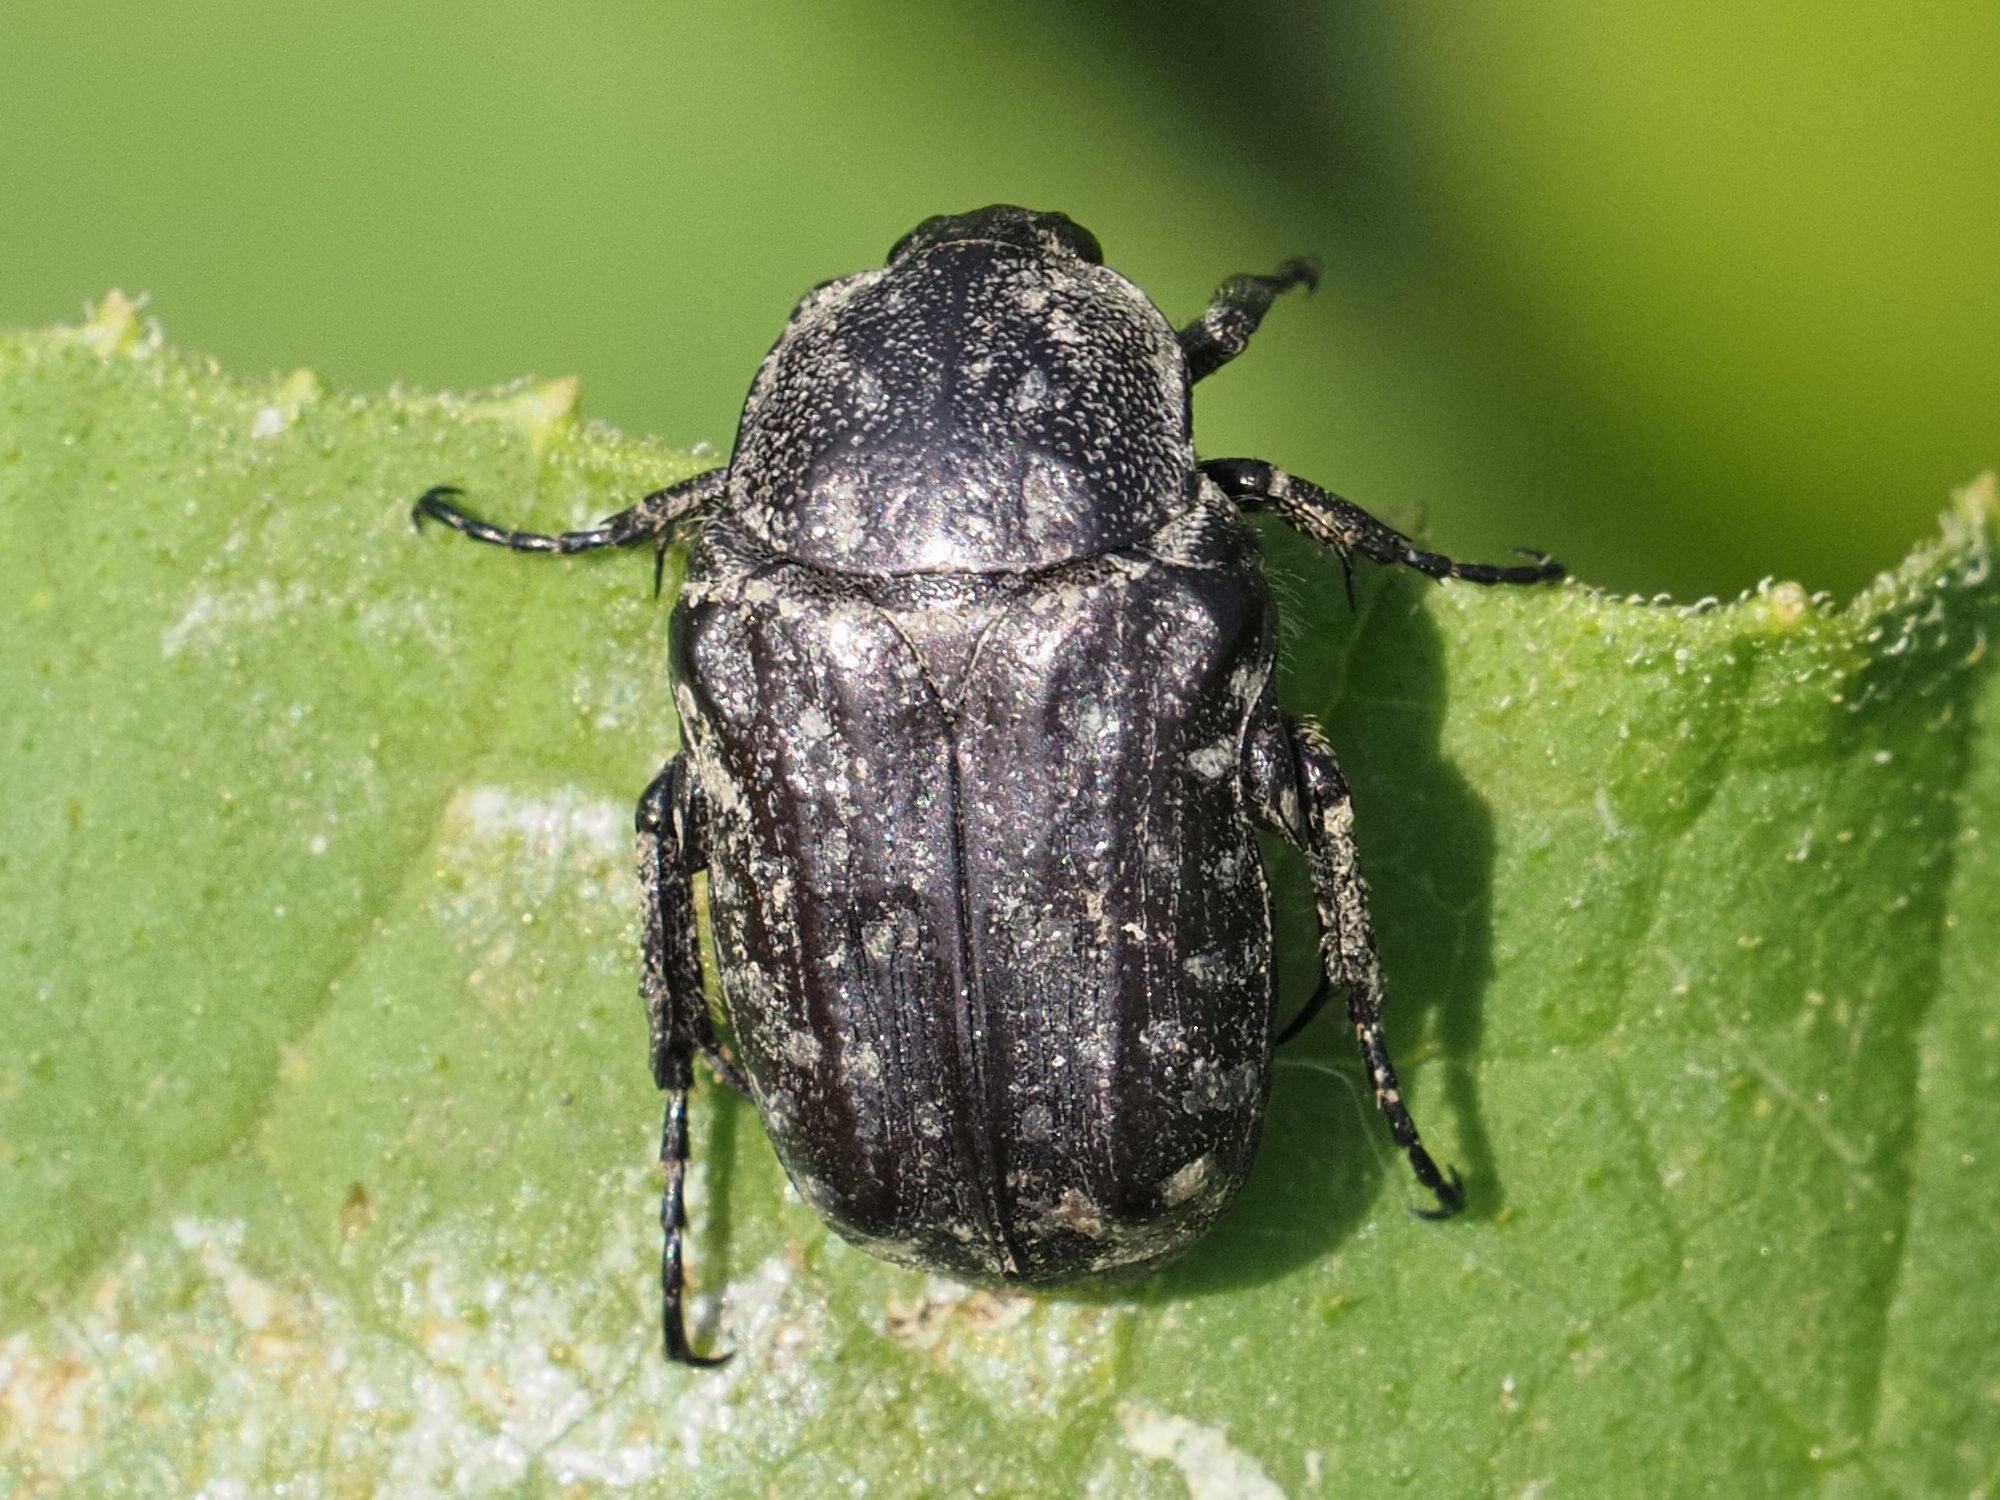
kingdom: Animalia
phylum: Arthropoda
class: Insecta
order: Coleoptera
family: Scarabaeidae
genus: Oxythyrea
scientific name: Oxythyrea funesta
